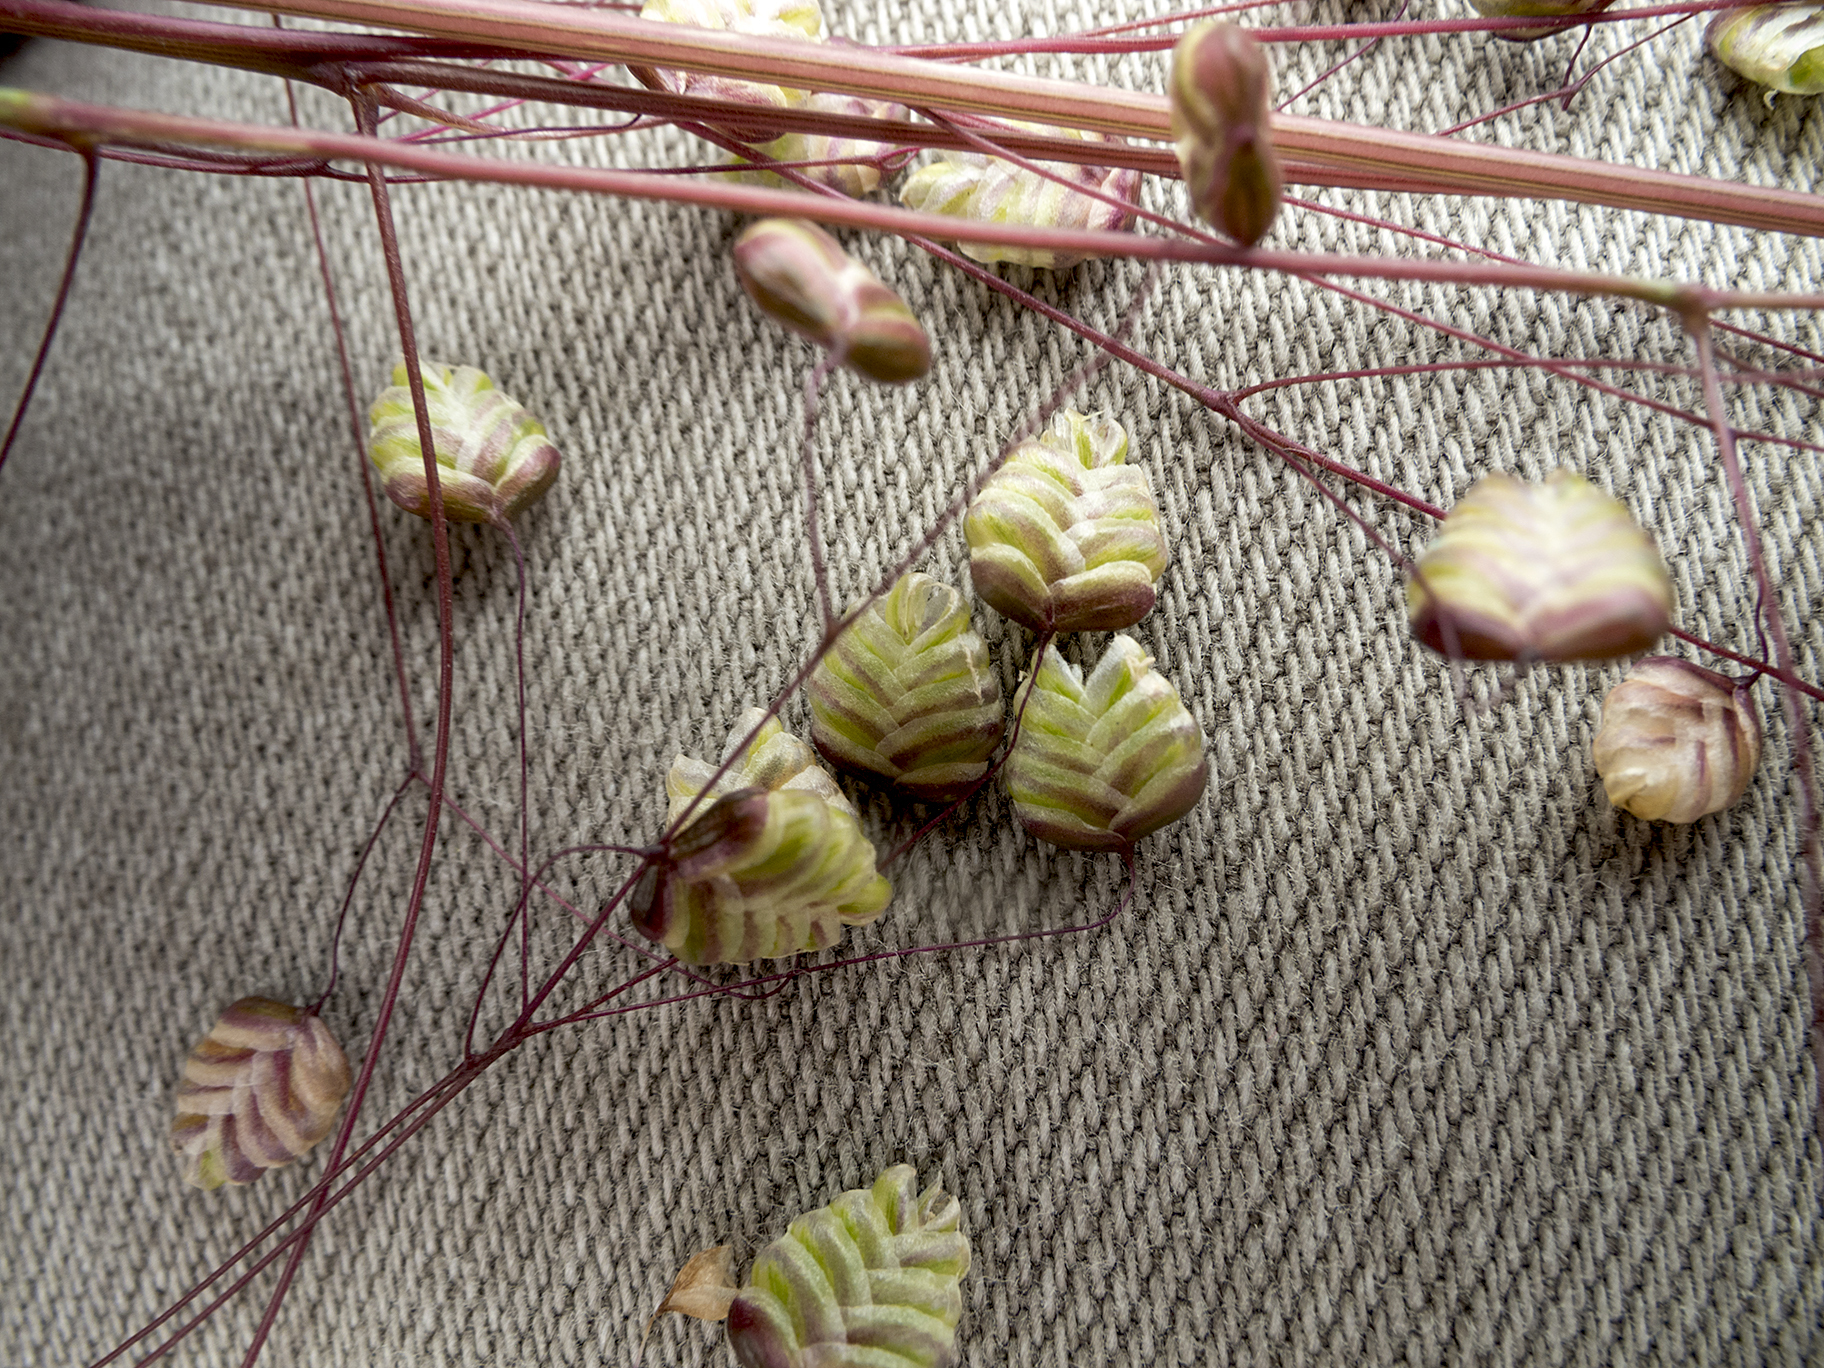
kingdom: Plantae
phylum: Tracheophyta
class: Liliopsida
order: Poales
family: Poaceae
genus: Briza
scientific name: Briza media
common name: Quaking grass
